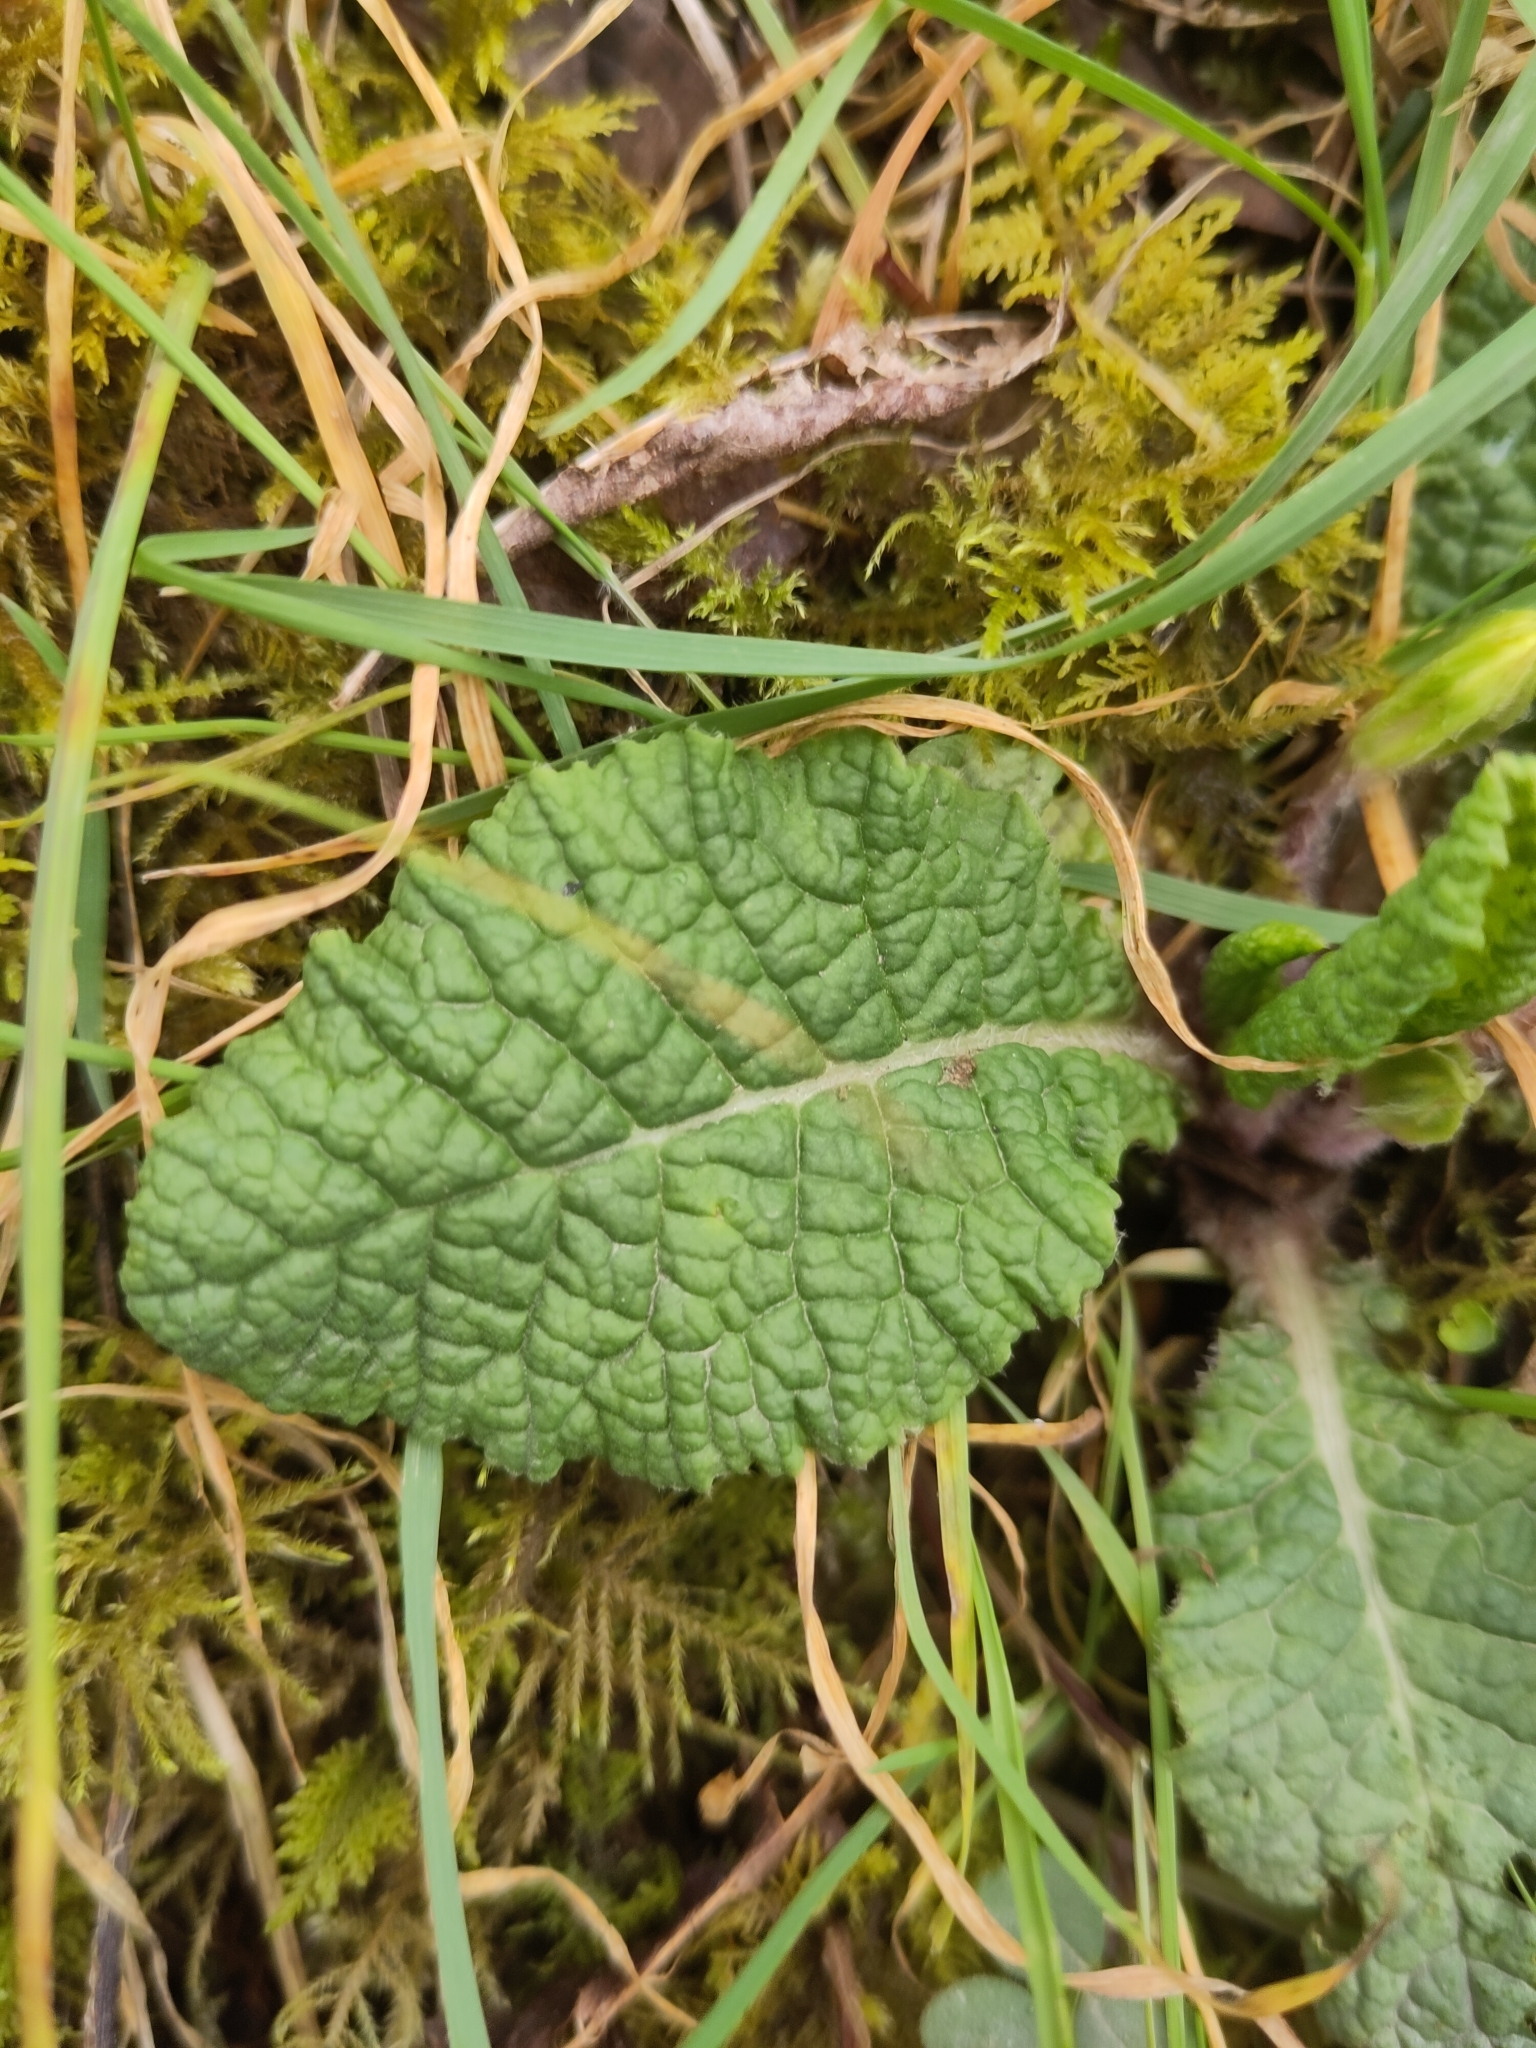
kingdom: Plantae
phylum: Tracheophyta
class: Magnoliopsida
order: Ericales
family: Primulaceae
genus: Primula
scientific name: Primula vulgaris
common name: Primrose
